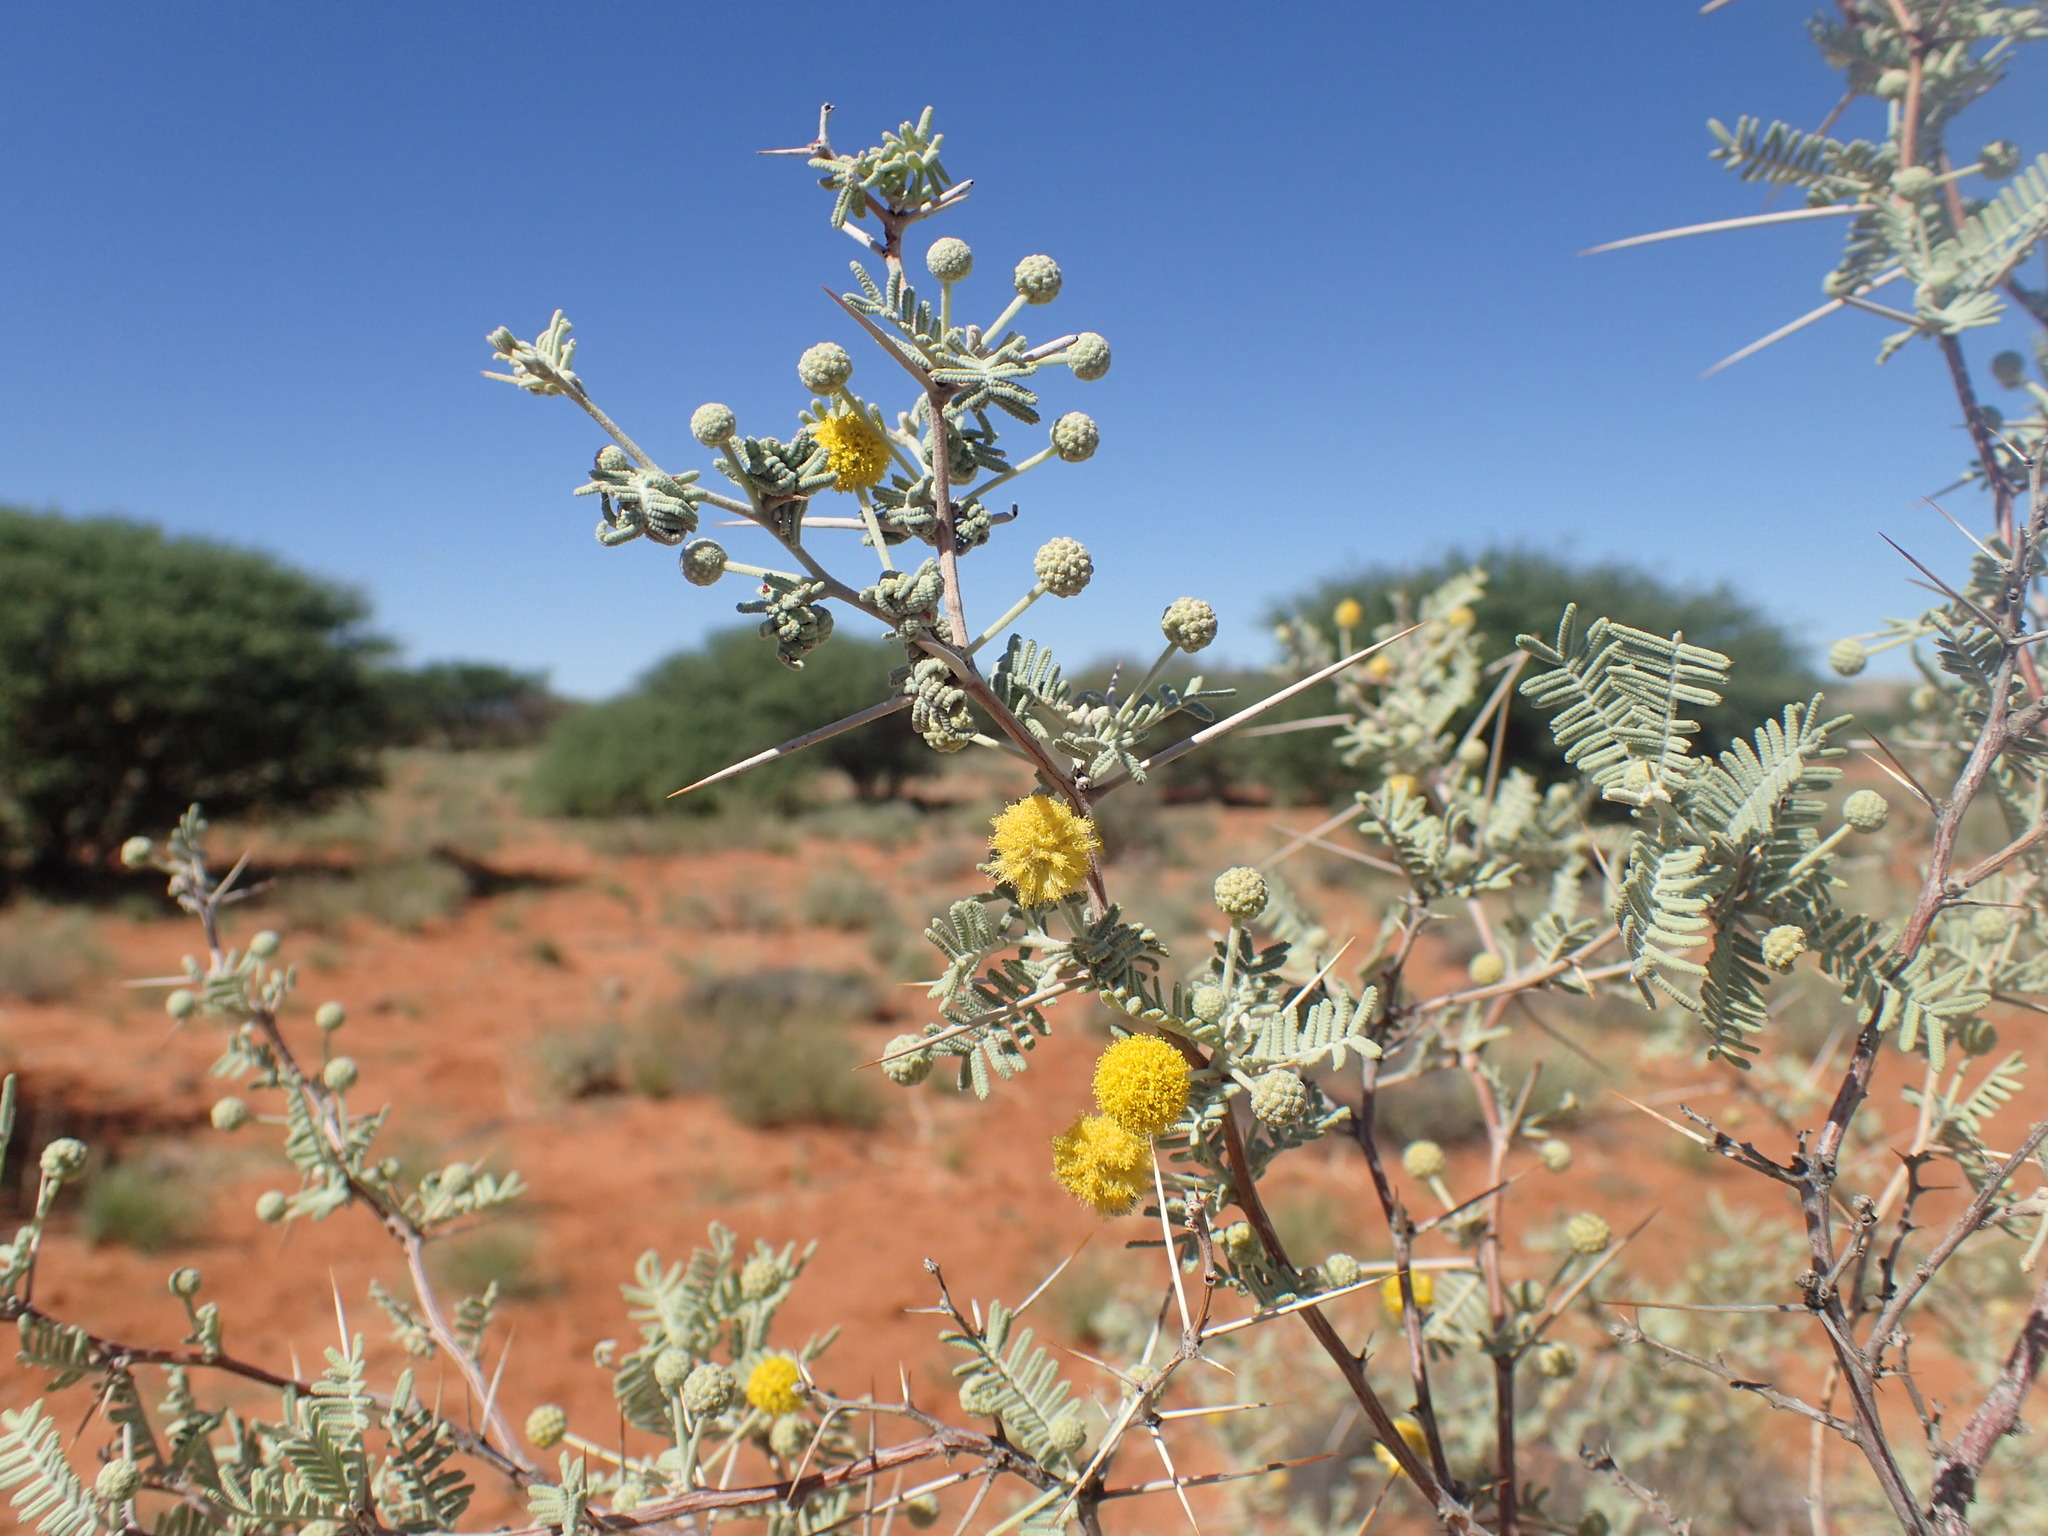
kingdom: Plantae
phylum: Tracheophyta
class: Magnoliopsida
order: Fabales
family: Fabaceae
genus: Vachellia
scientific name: Vachellia haematoxylon
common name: Grey camel thorn
